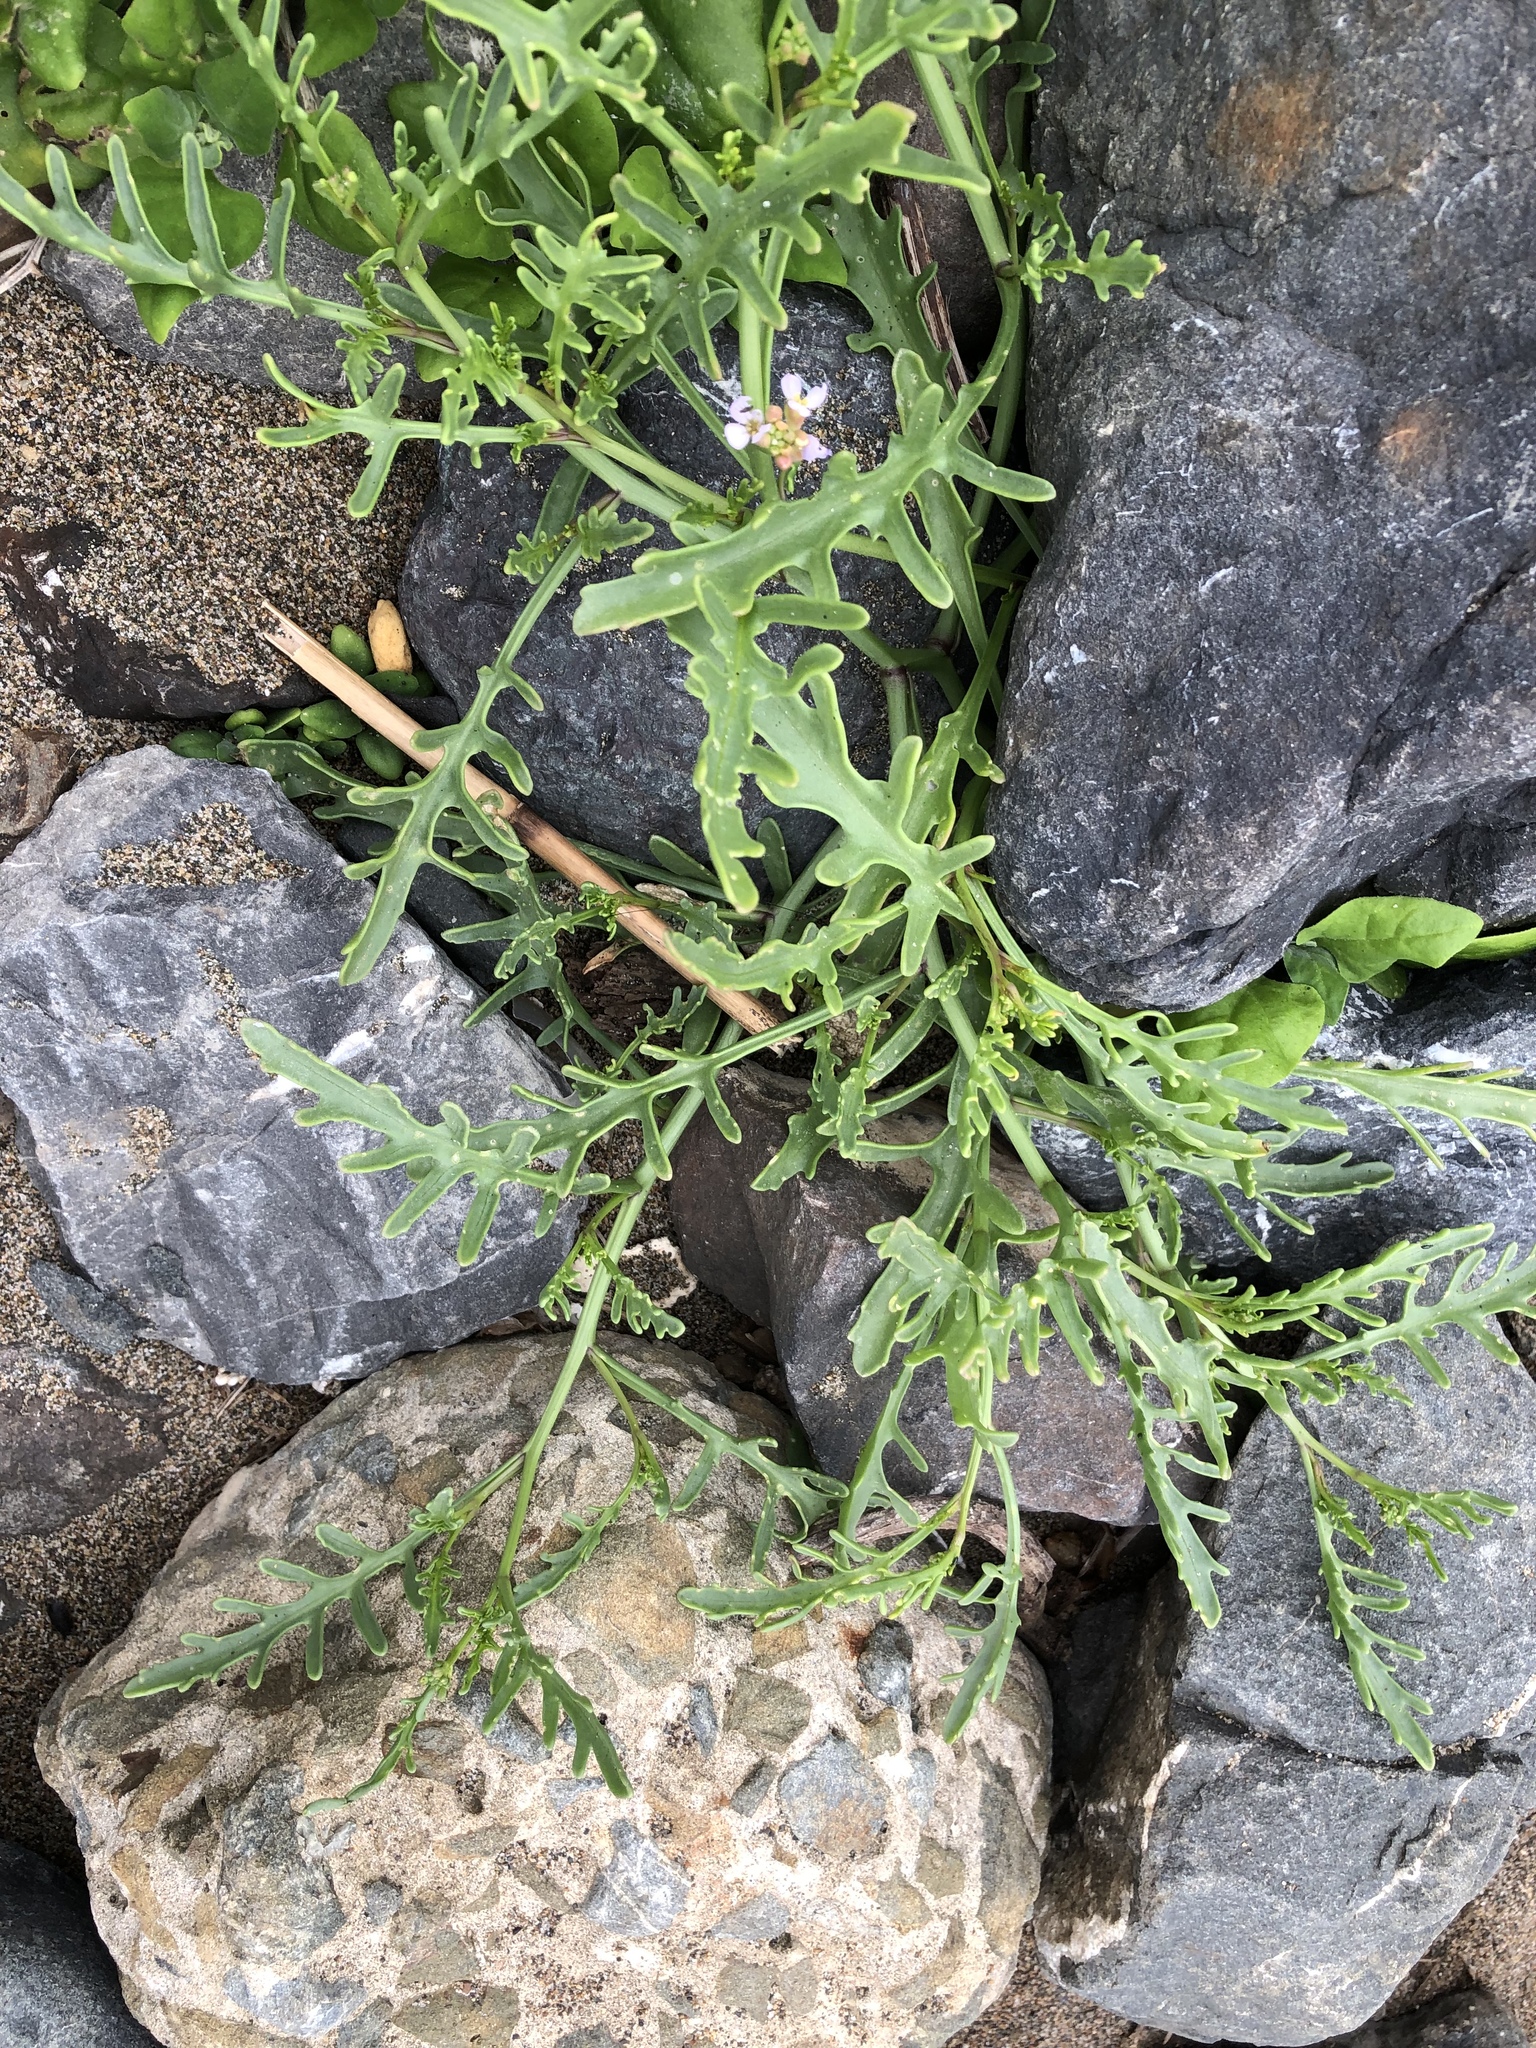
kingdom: Plantae
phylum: Tracheophyta
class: Magnoliopsida
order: Brassicales
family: Brassicaceae
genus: Cakile
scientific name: Cakile maritima
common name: Sea rocket
